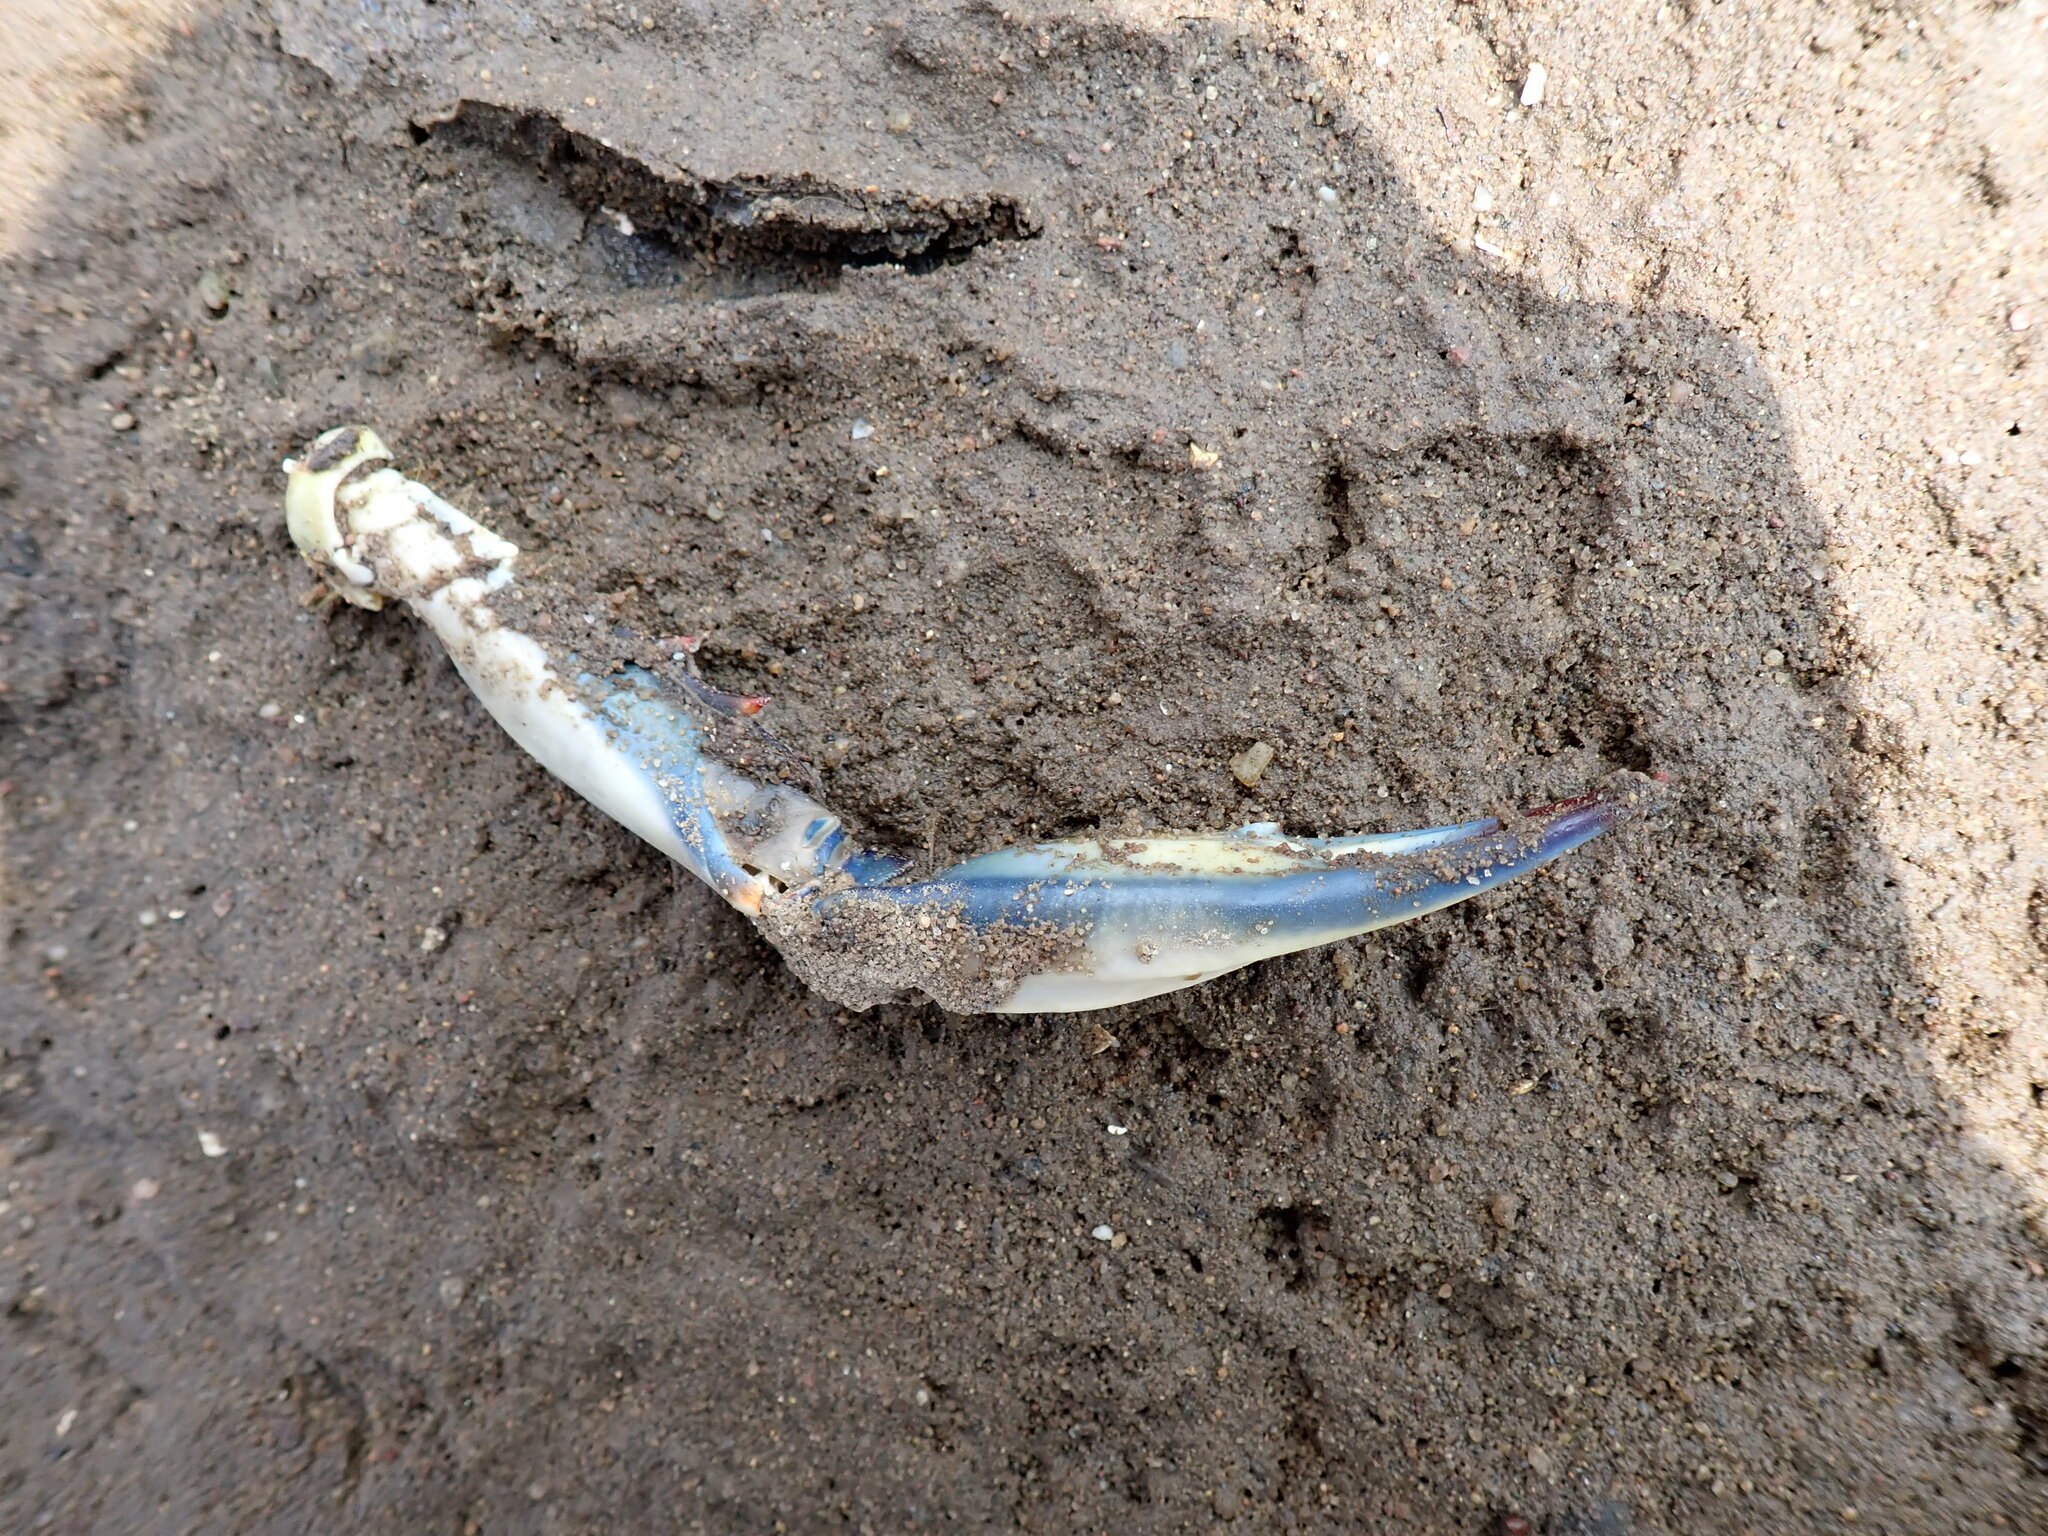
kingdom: Animalia
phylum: Arthropoda
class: Malacostraca
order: Decapoda
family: Portunidae
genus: Callinectes
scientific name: Callinectes sapidus
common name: Blue crab
